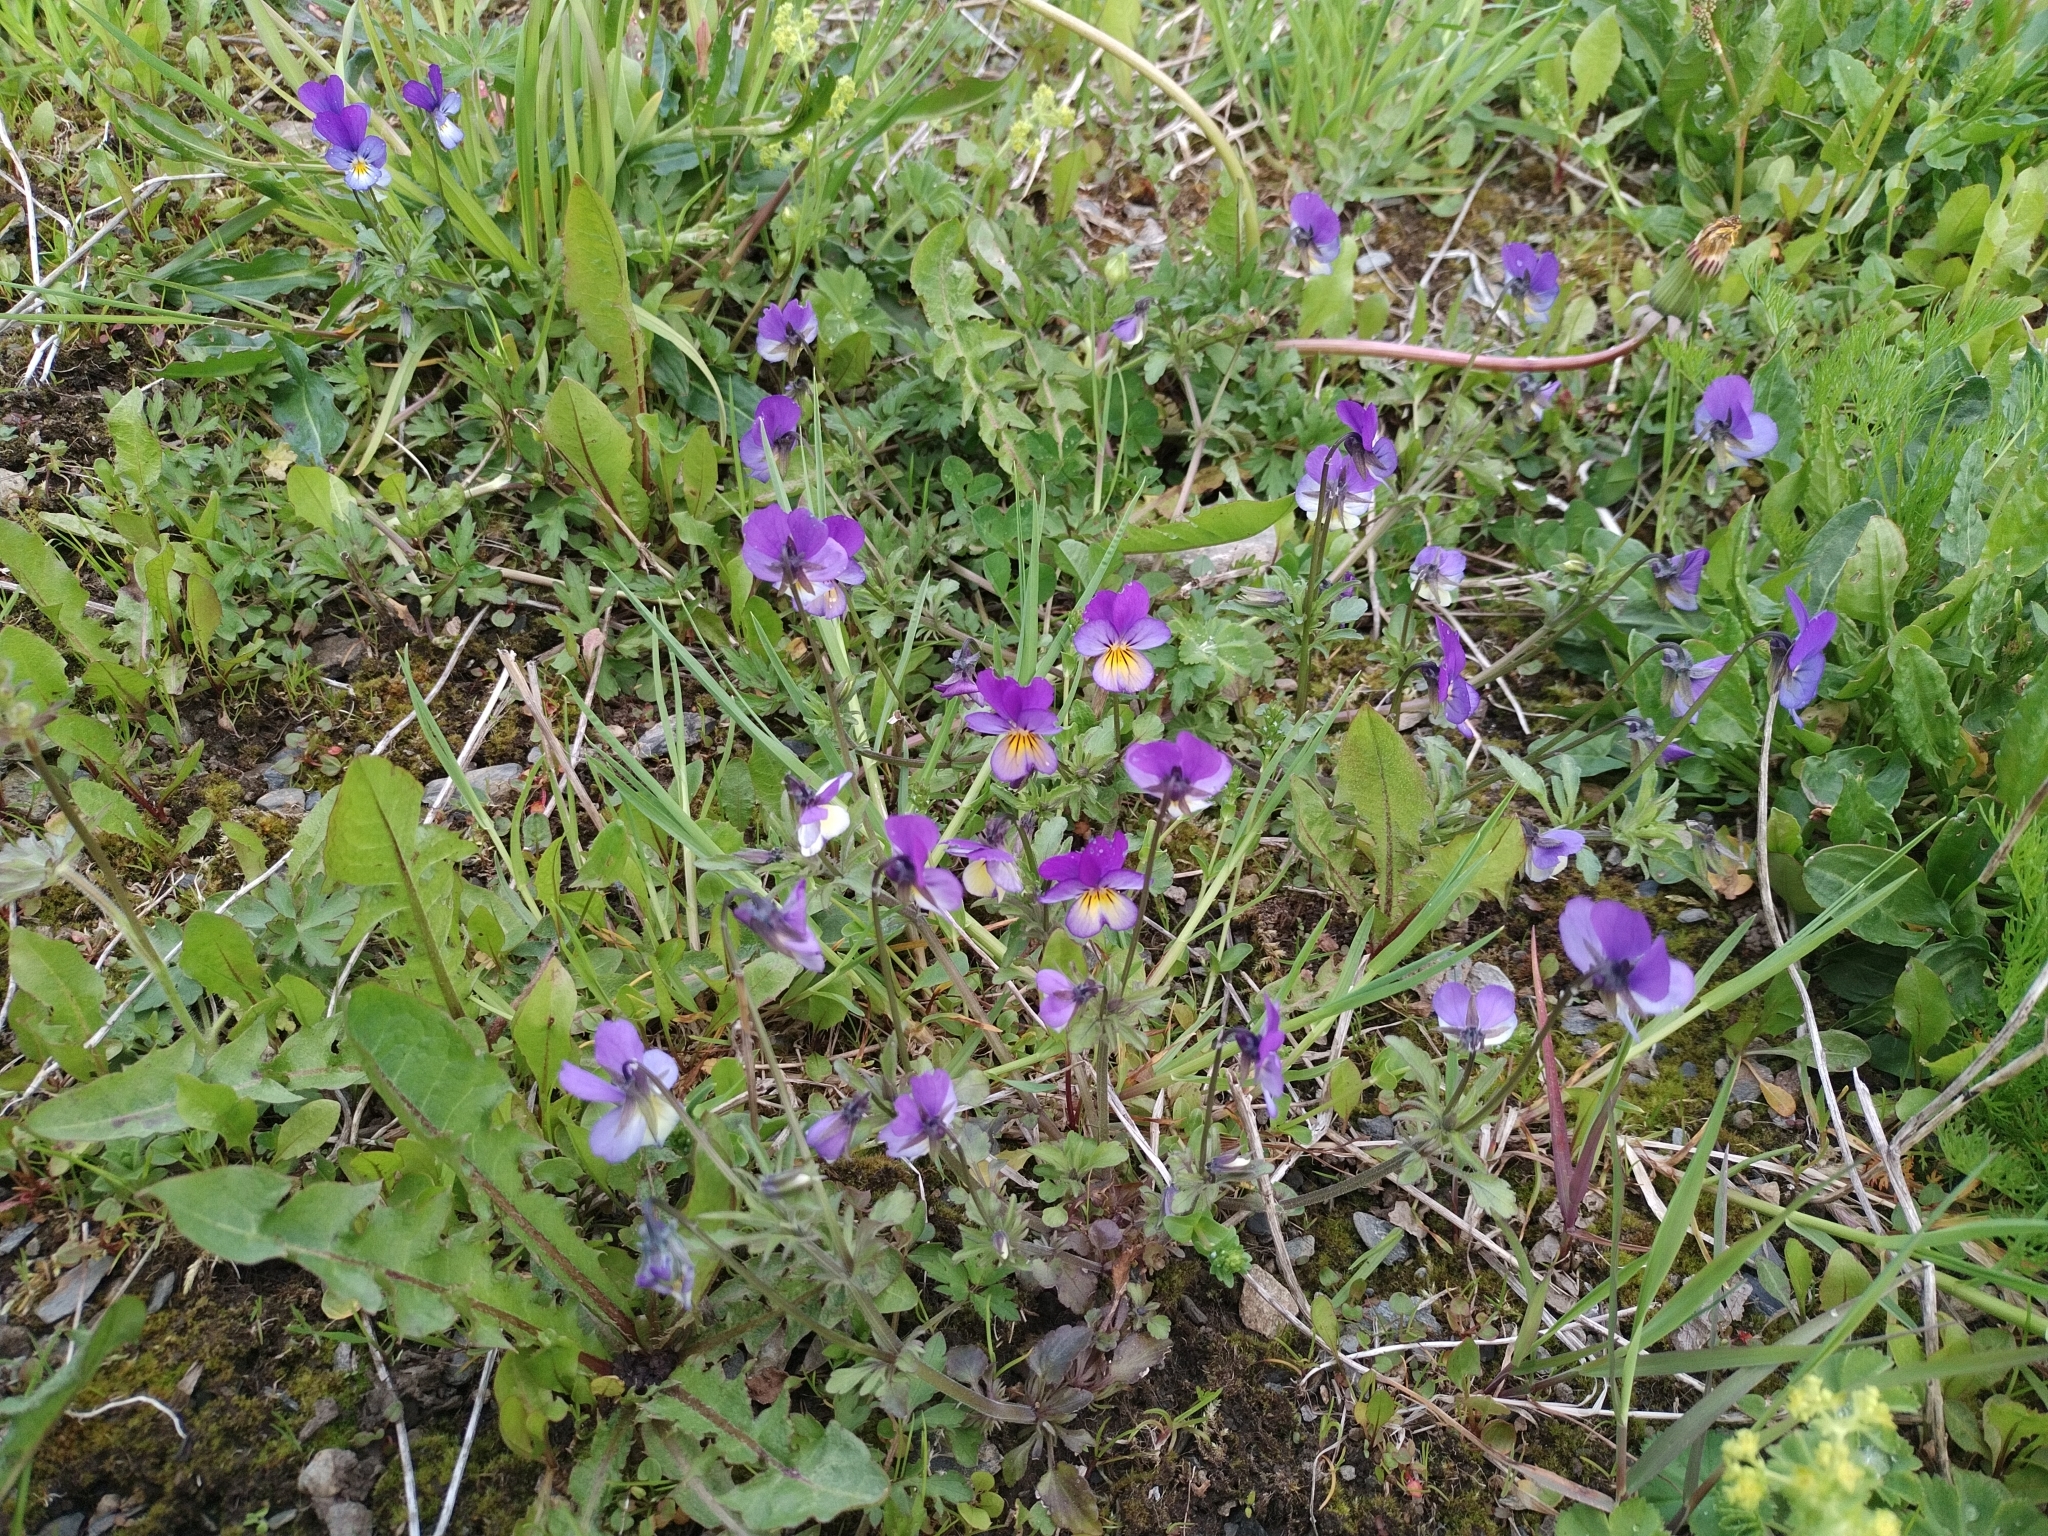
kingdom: Plantae
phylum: Tracheophyta
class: Magnoliopsida
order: Malpighiales
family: Violaceae
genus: Viola
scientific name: Viola tricolor
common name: Pansy
